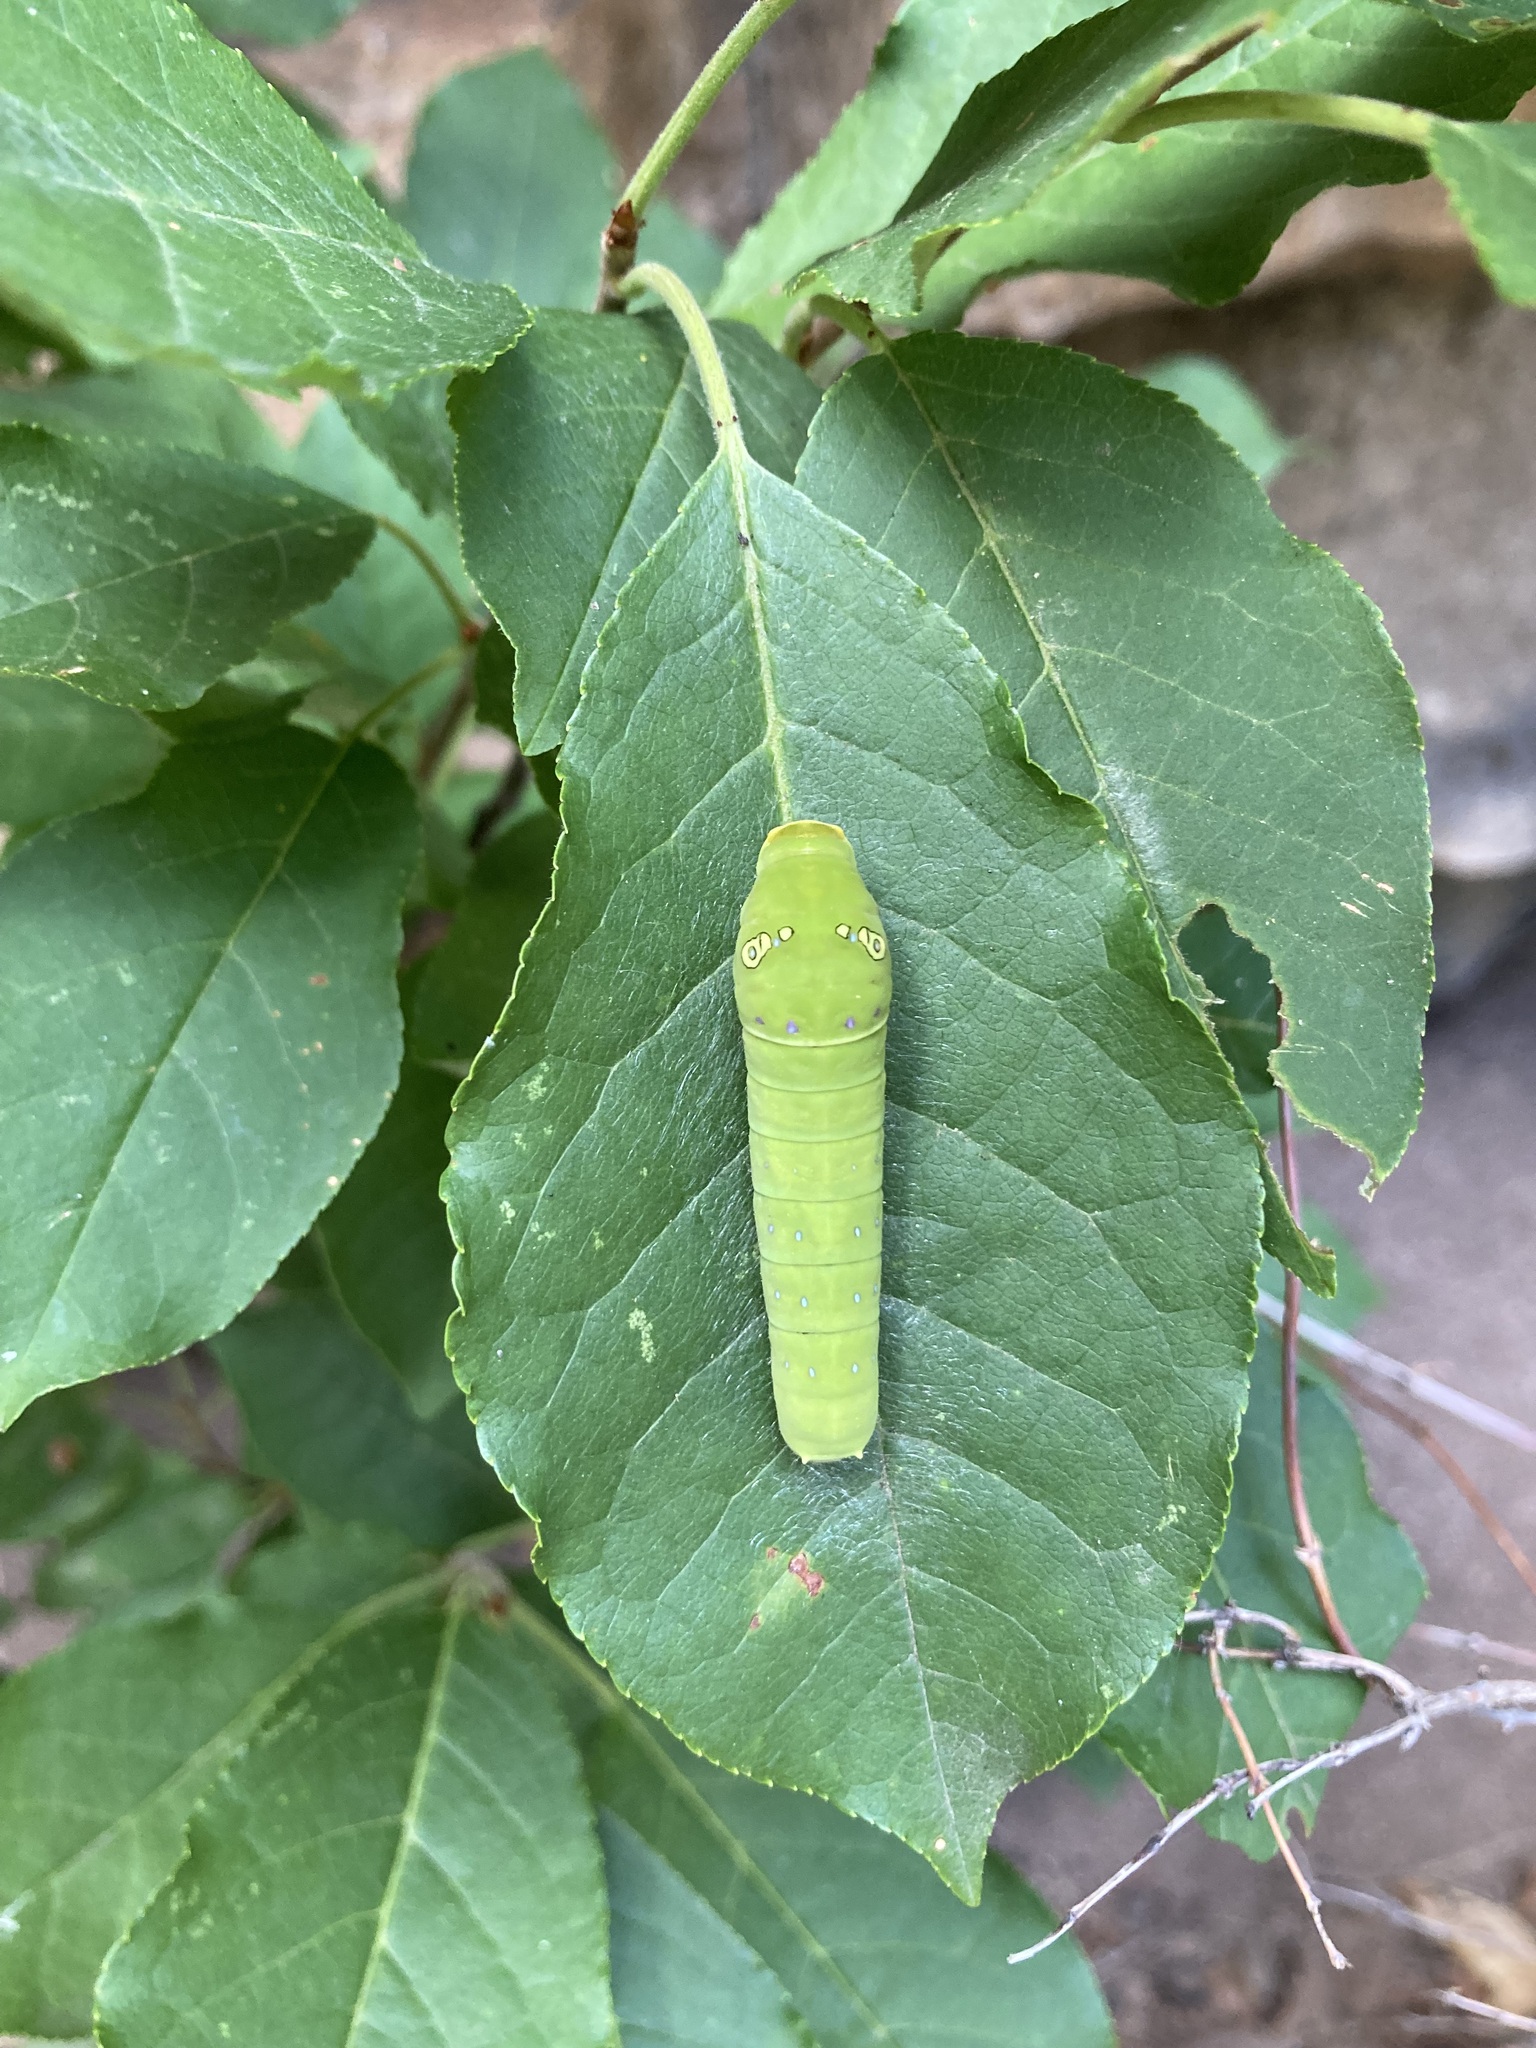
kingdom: Animalia
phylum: Arthropoda
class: Insecta
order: Lepidoptera
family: Papilionidae
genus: Papilio
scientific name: Papilio multicaudata
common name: Two-tailed tiger swallowtail
